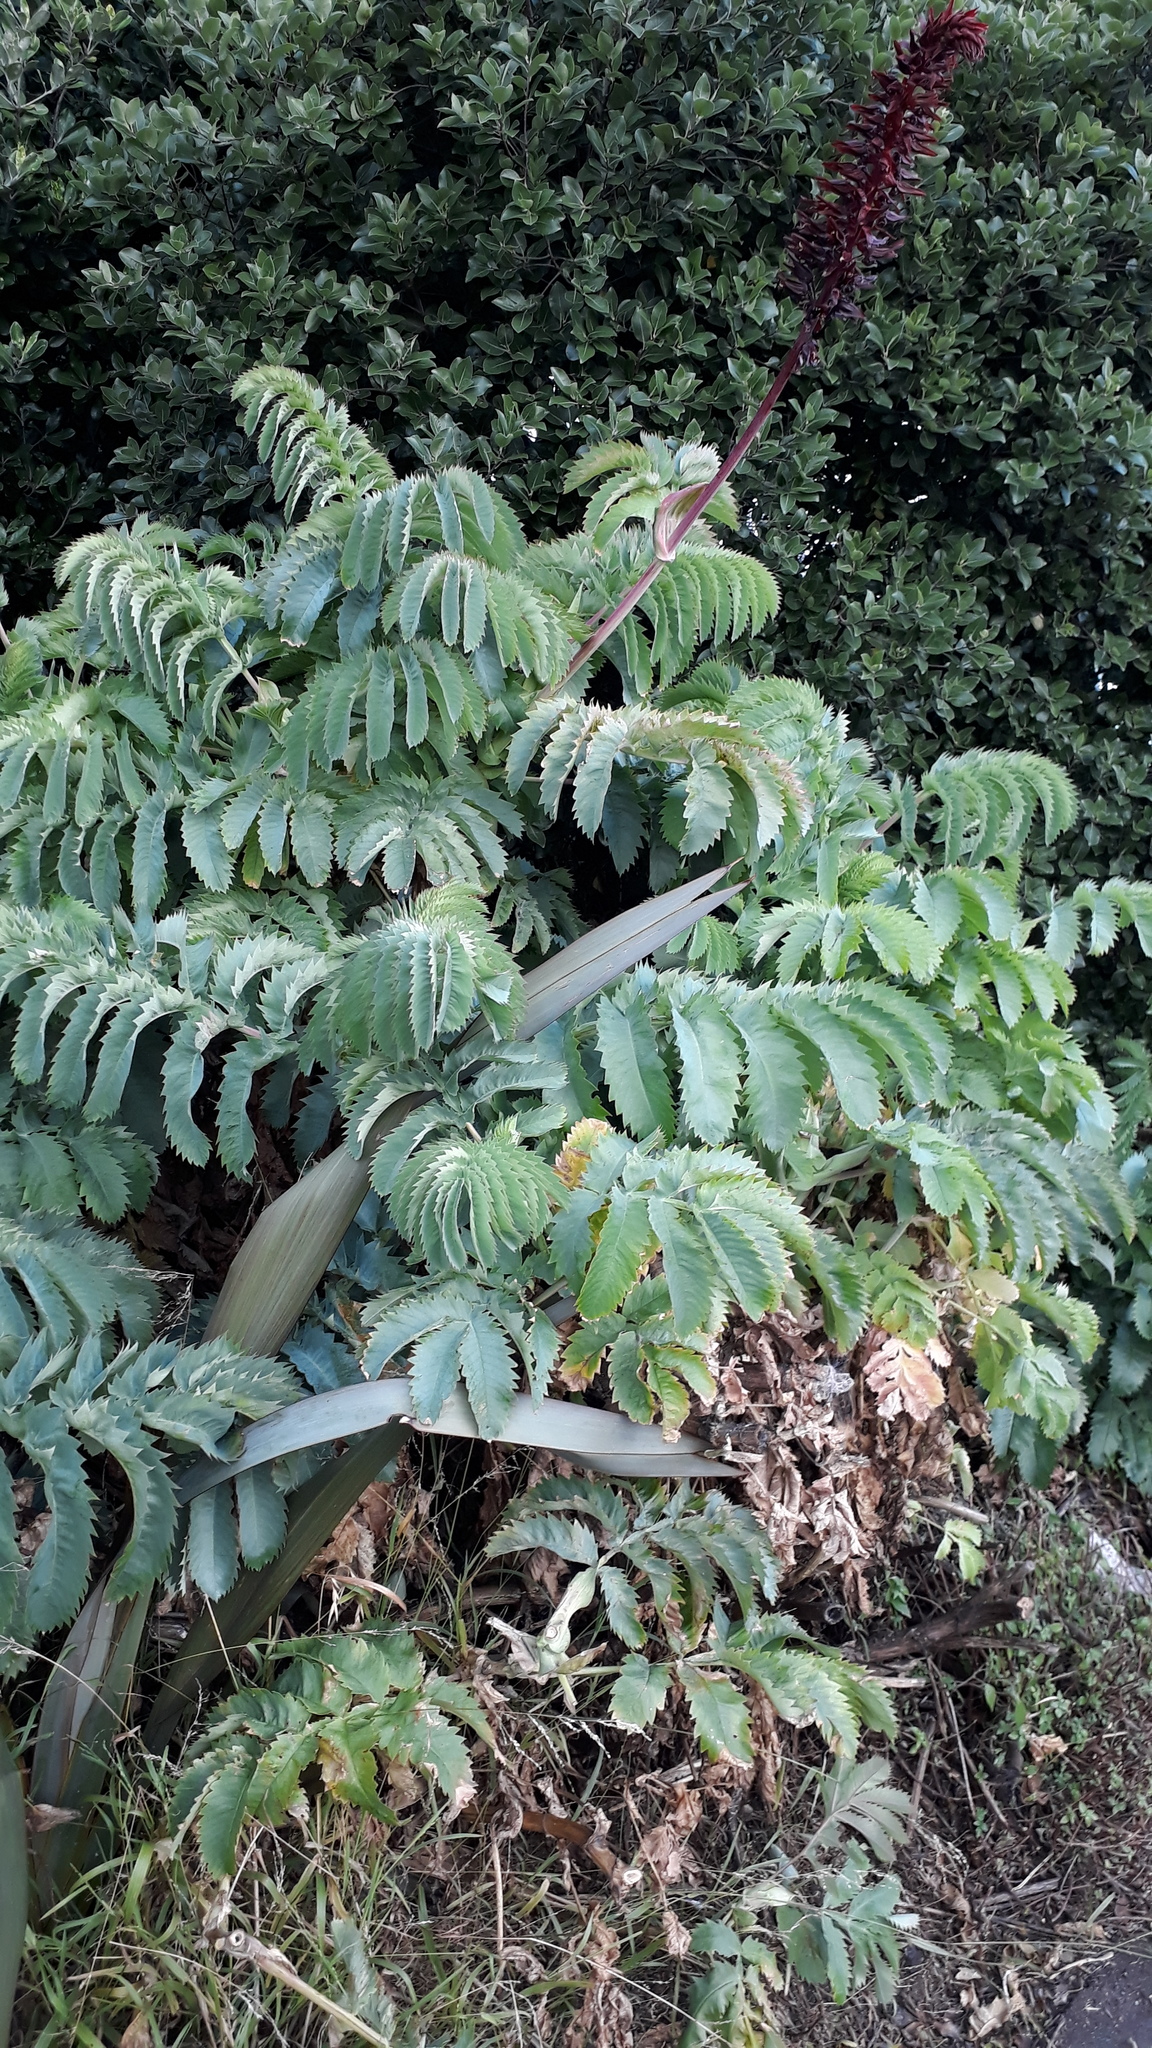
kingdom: Plantae
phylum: Tracheophyta
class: Magnoliopsida
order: Geraniales
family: Melianthaceae
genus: Melianthus
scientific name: Melianthus major
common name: Honey-flower
